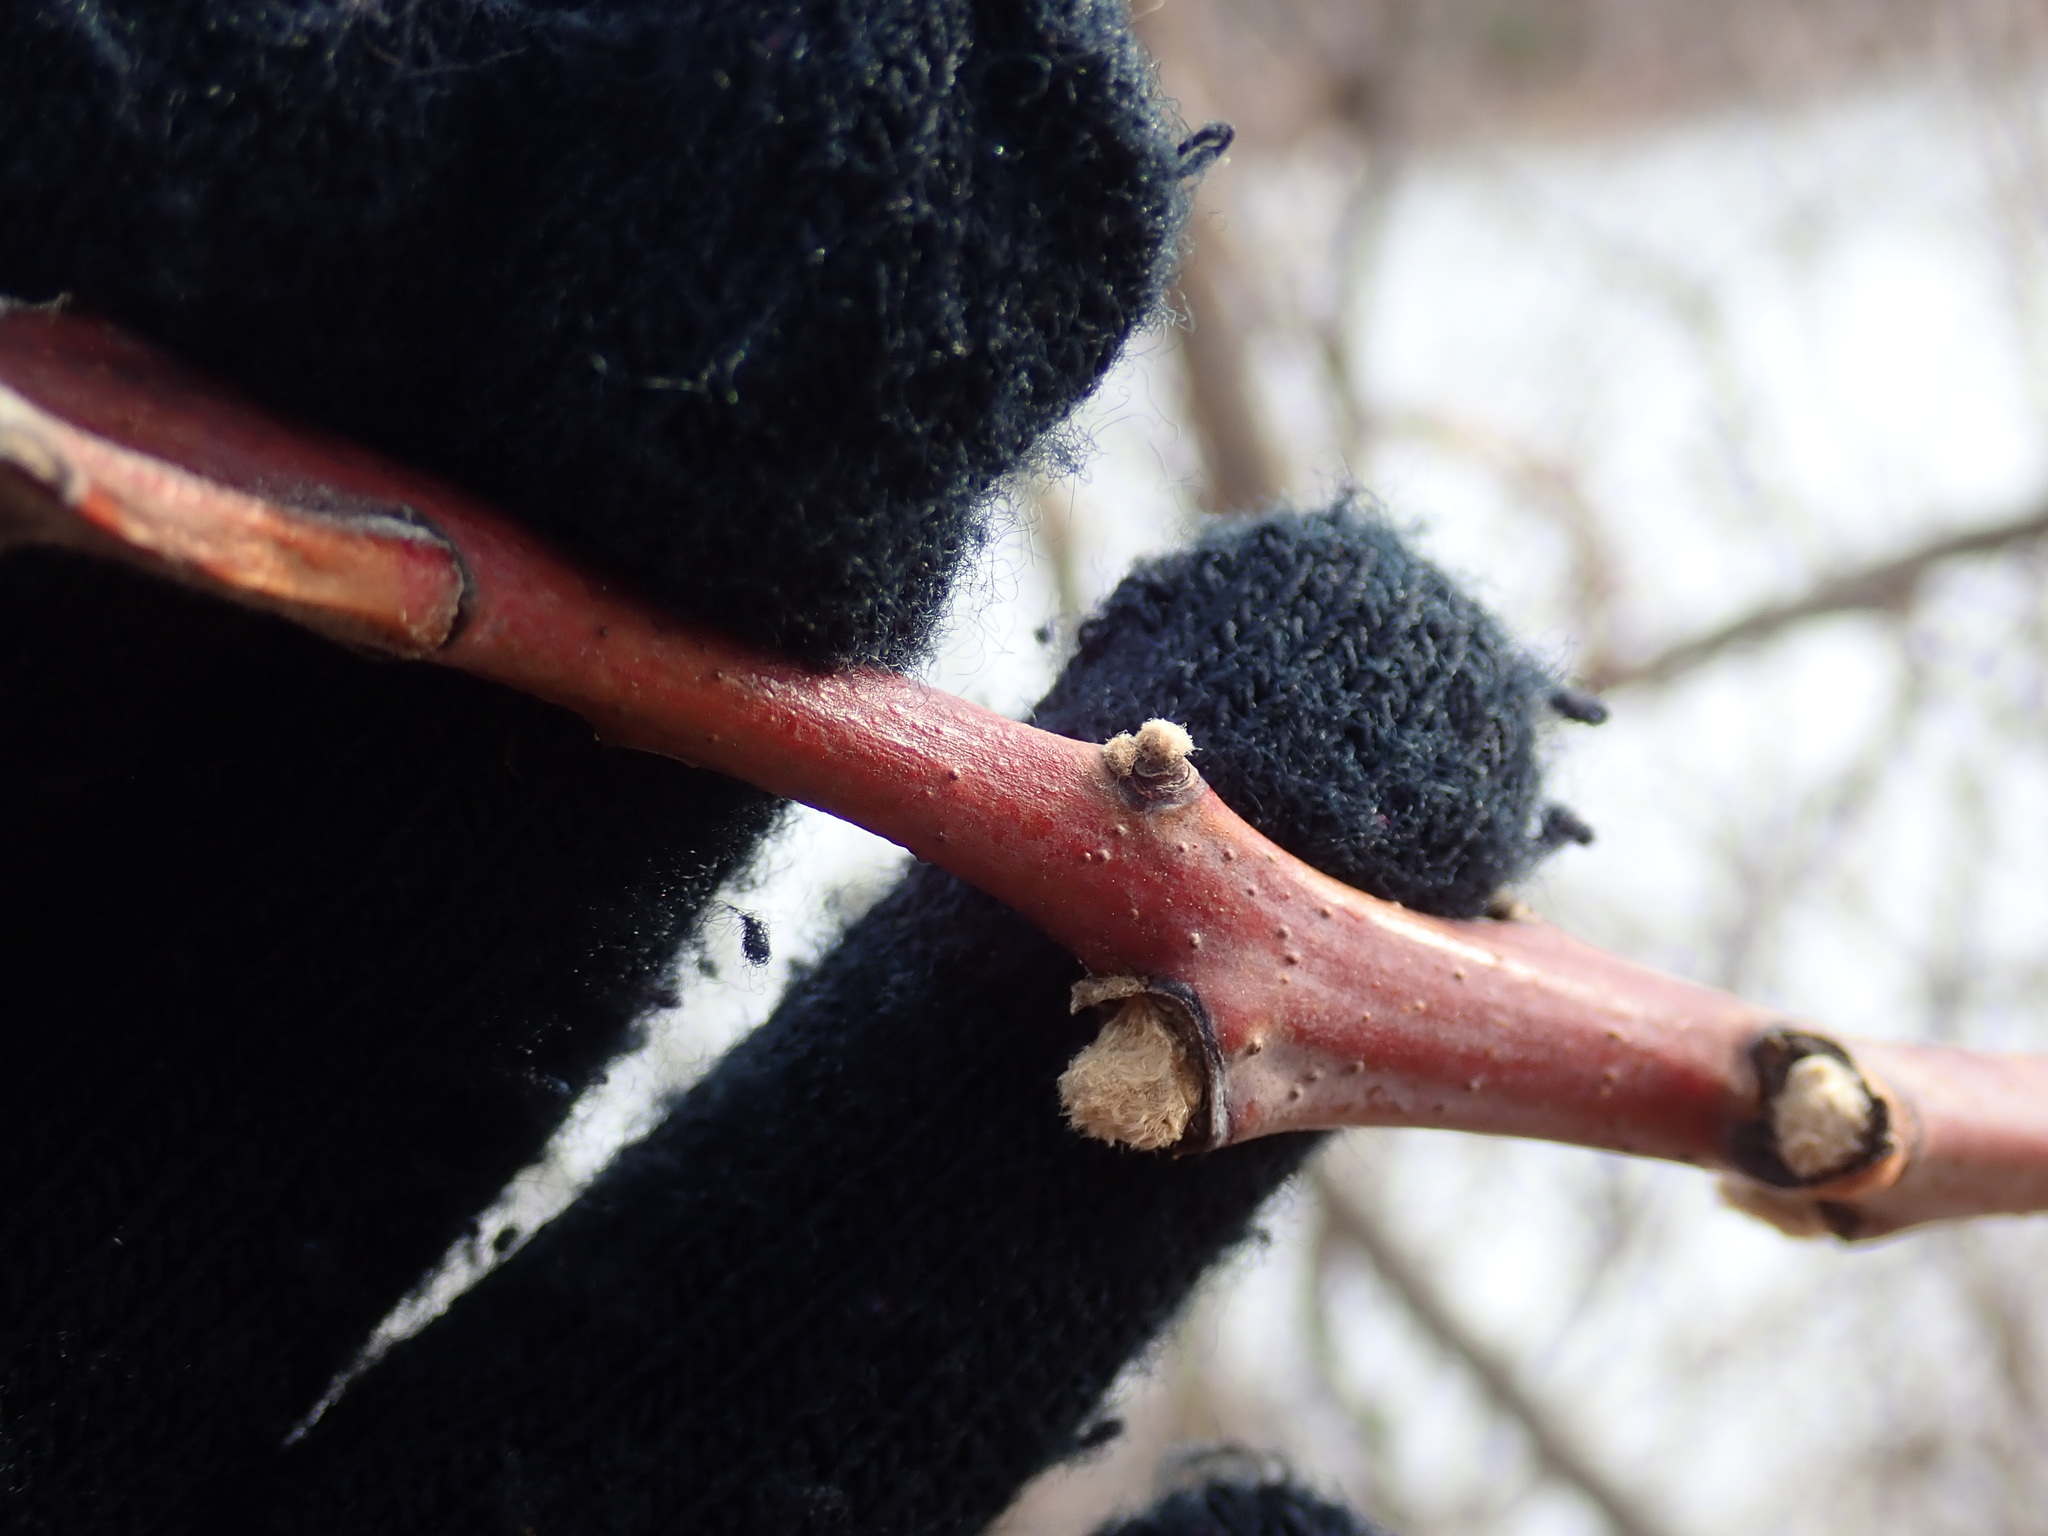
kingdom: Plantae
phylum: Tracheophyta
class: Magnoliopsida
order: Sapindales
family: Anacardiaceae
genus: Rhus
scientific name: Rhus glabra
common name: Scarlet sumac
